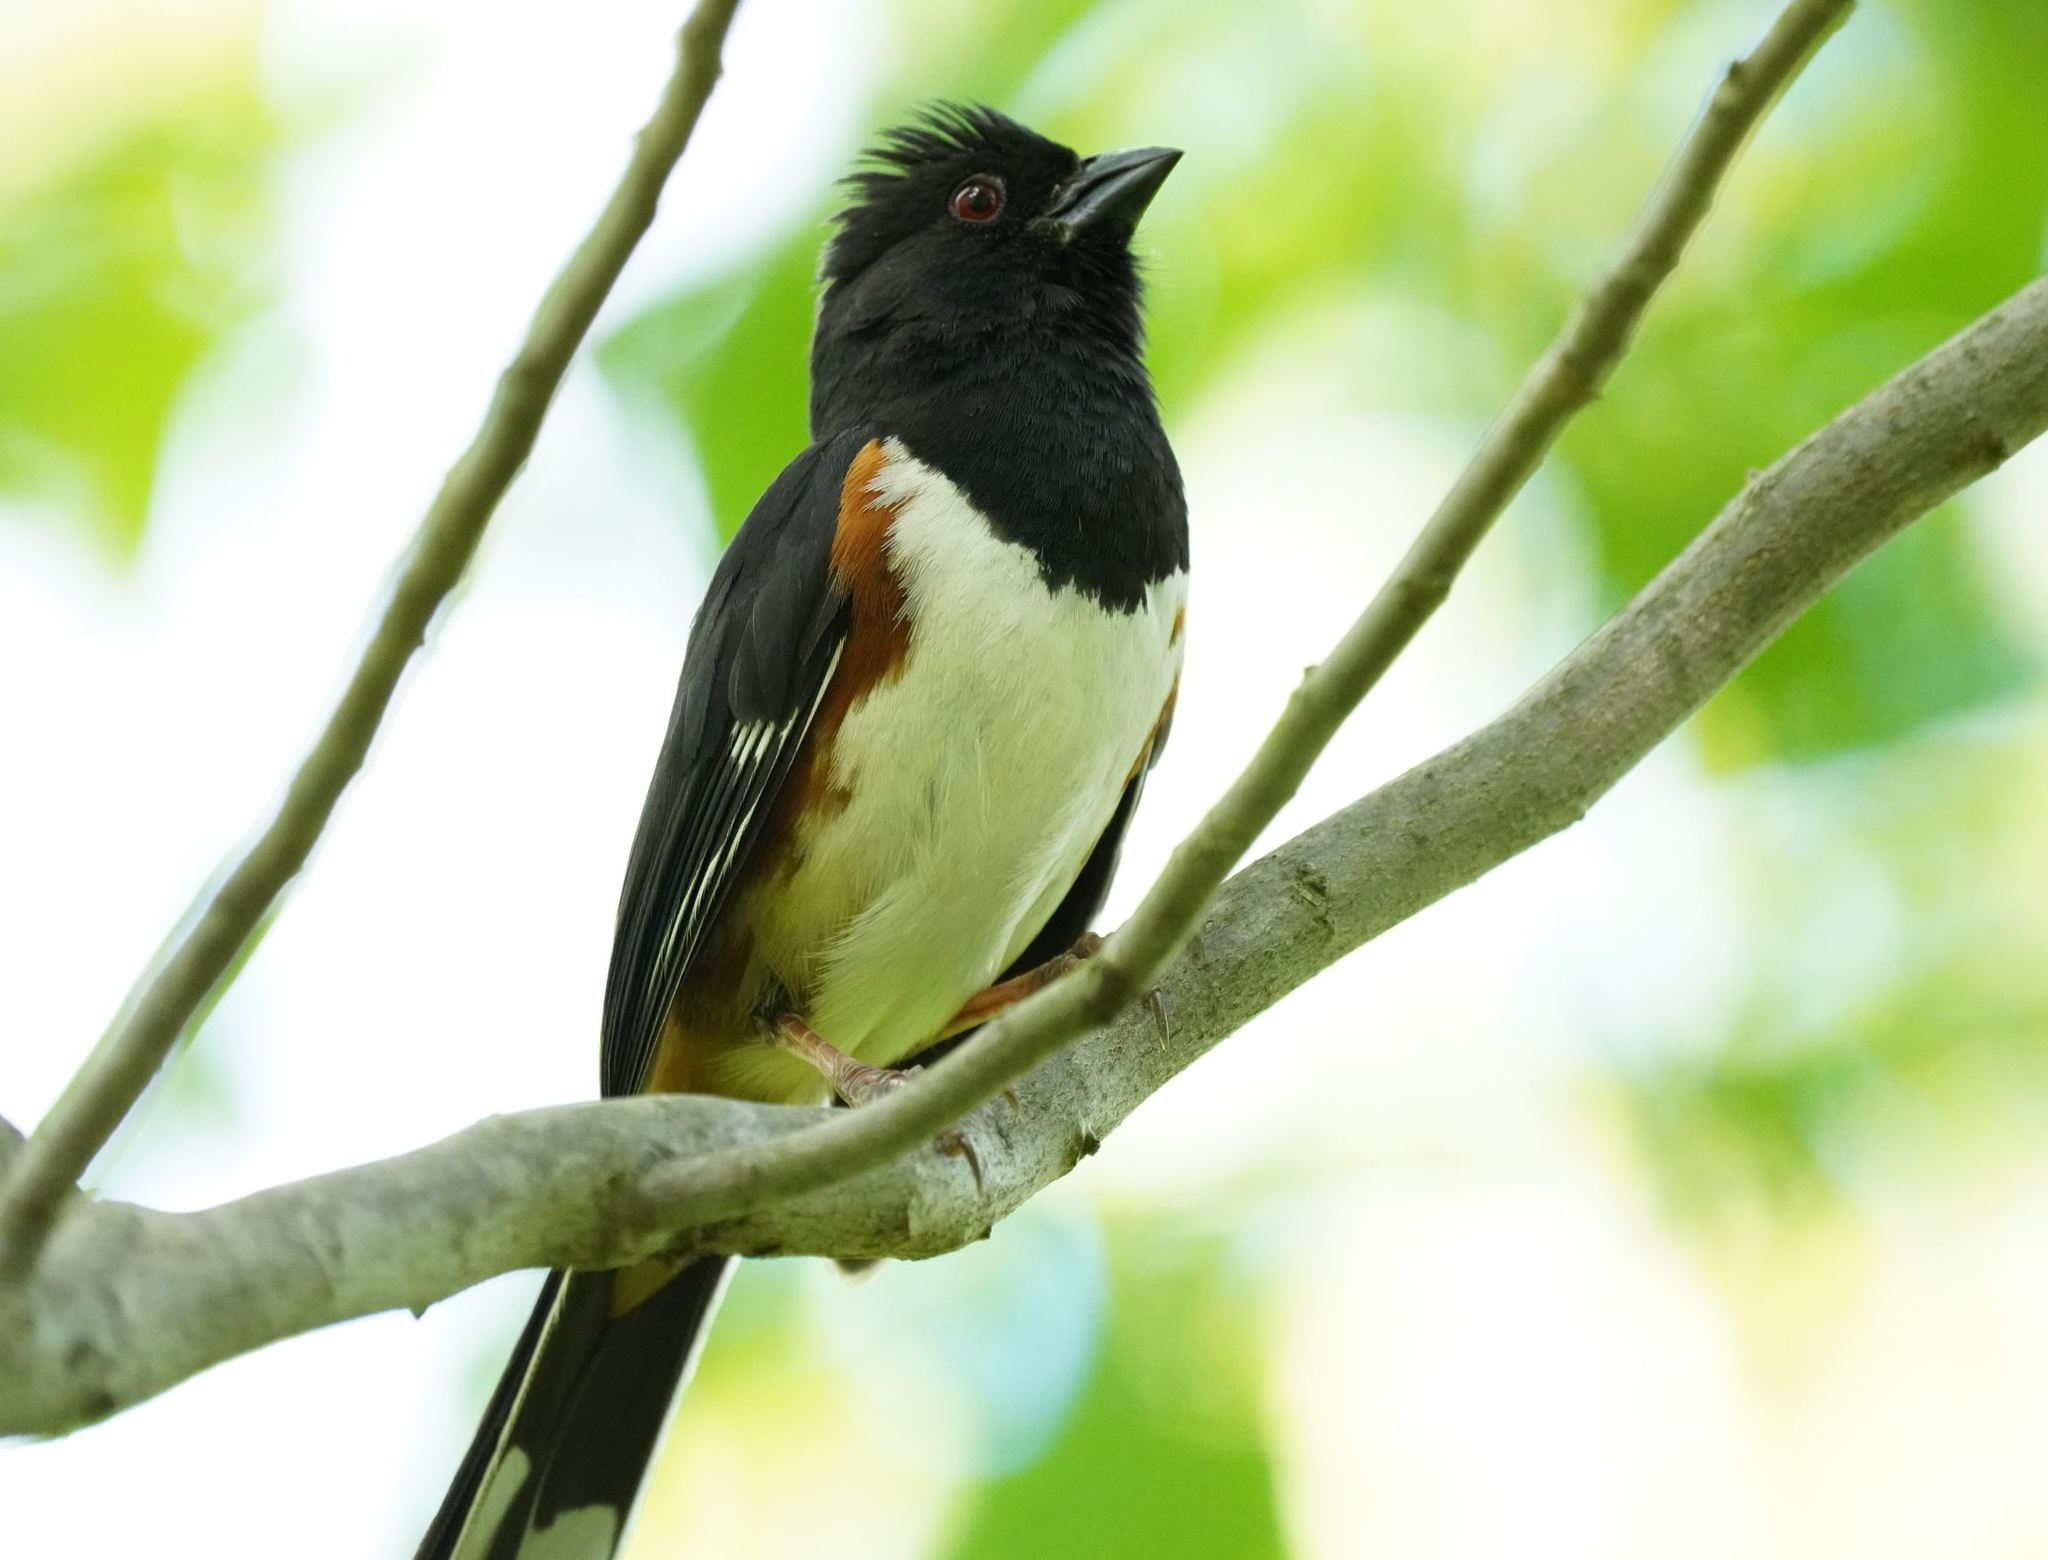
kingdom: Animalia
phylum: Chordata
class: Aves
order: Passeriformes
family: Passerellidae
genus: Pipilo
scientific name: Pipilo erythrophthalmus
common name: Eastern towhee
